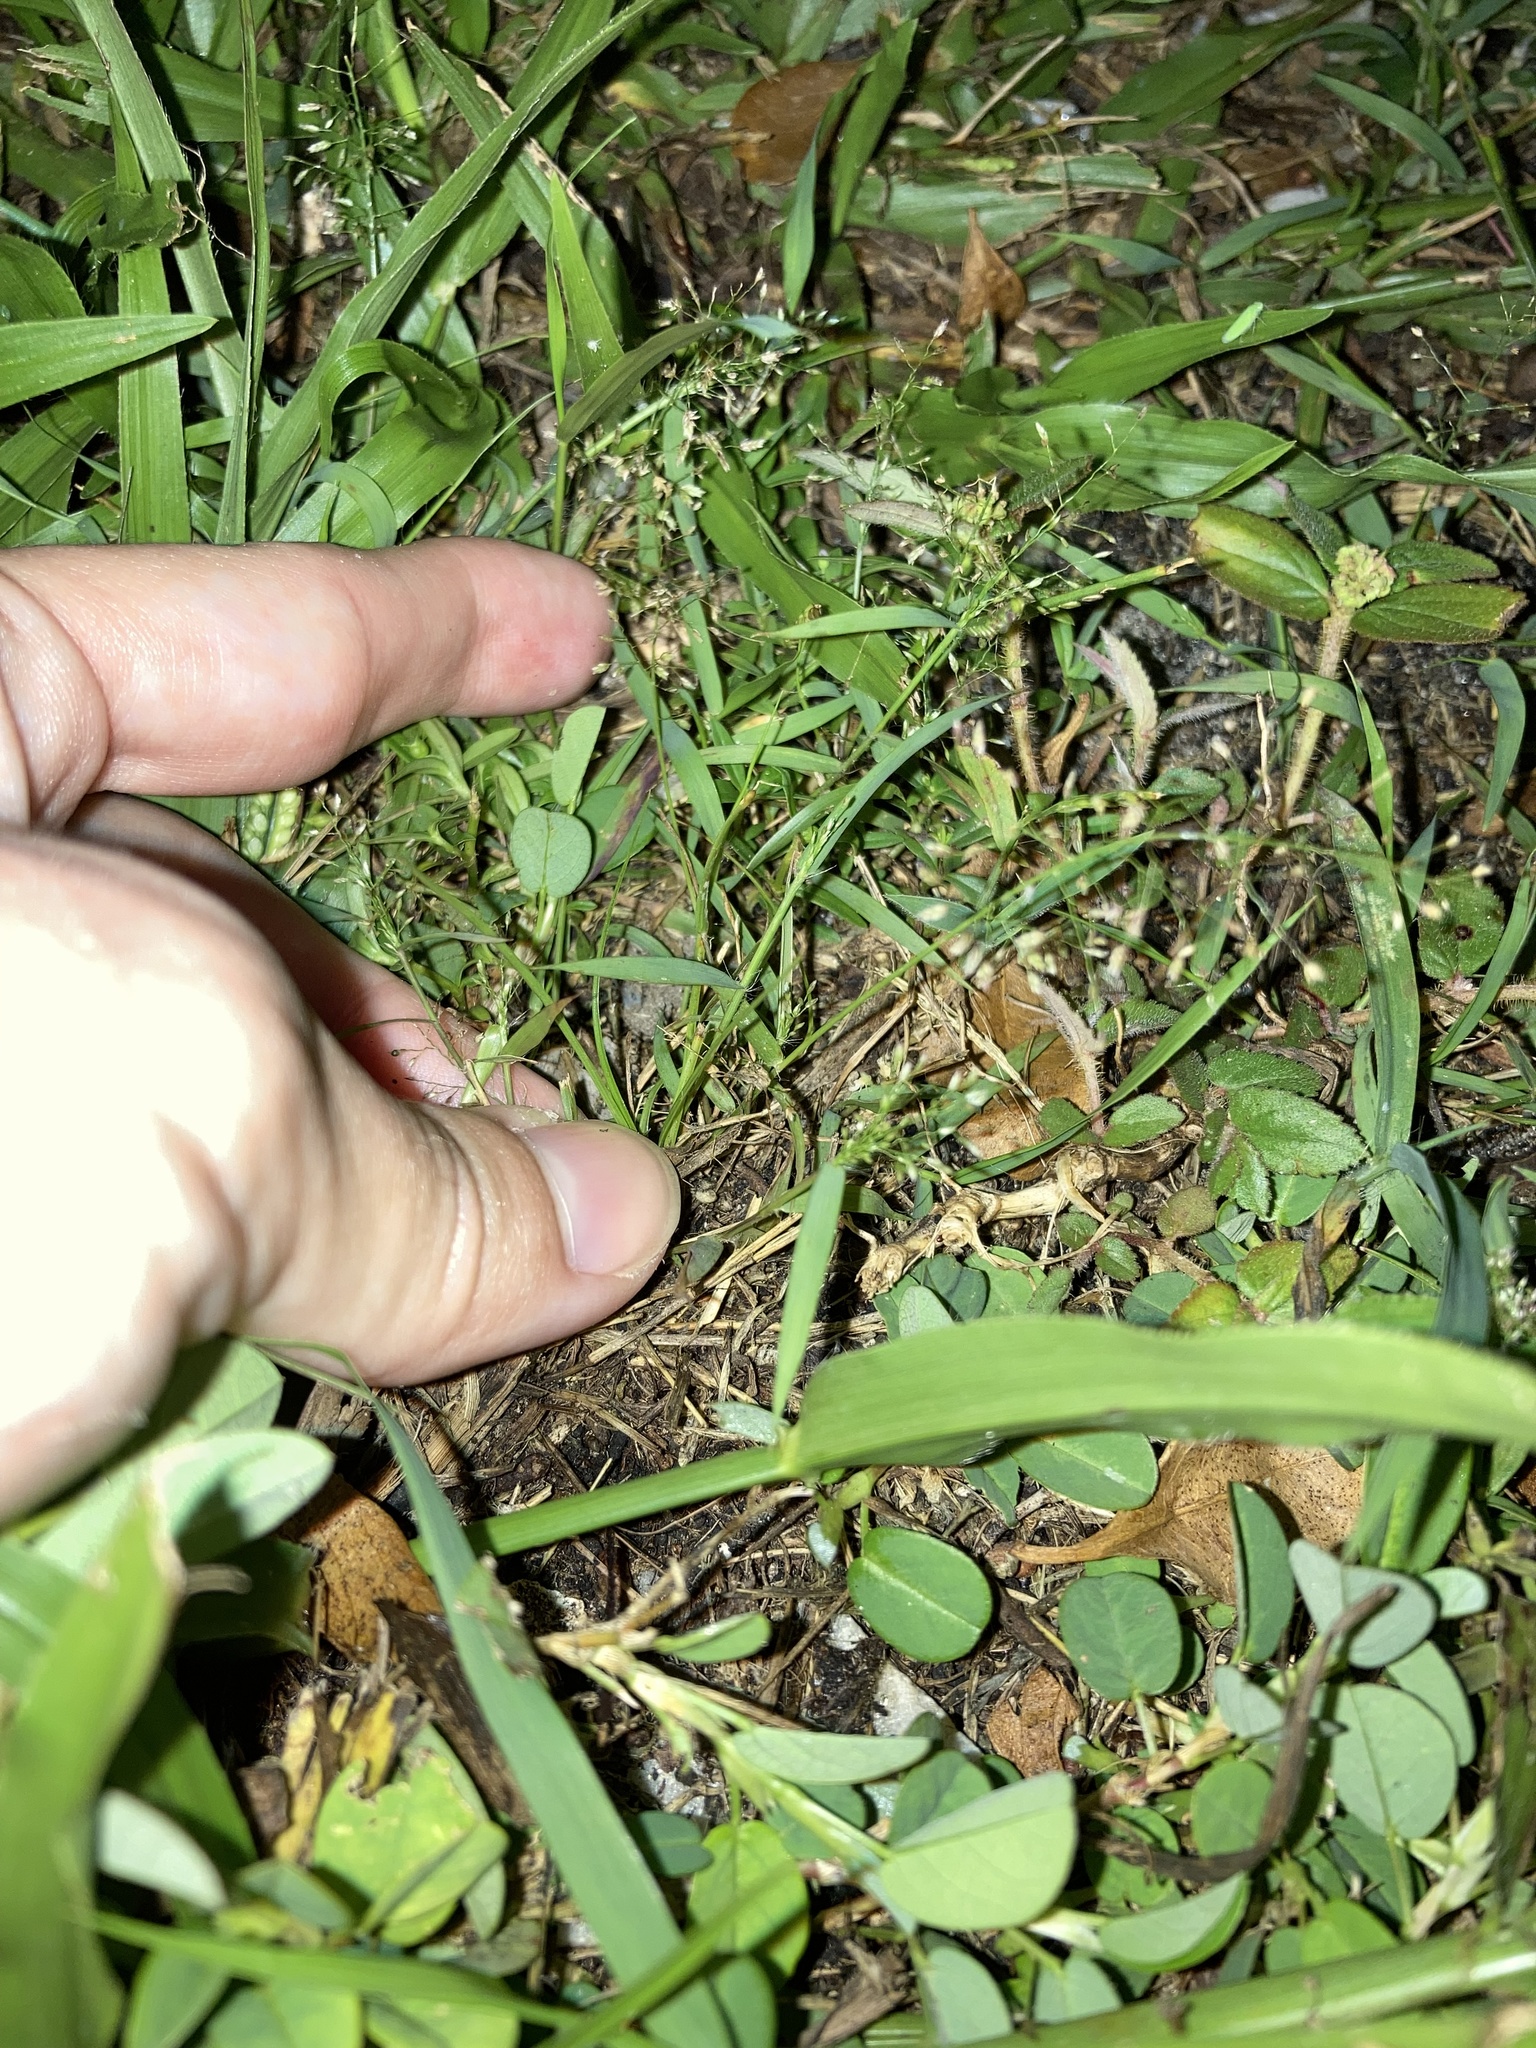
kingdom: Plantae
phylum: Tracheophyta
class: Liliopsida
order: Poales
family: Poaceae
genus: Eragrostis
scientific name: Eragrostis tenella
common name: Japanese lovegrass
